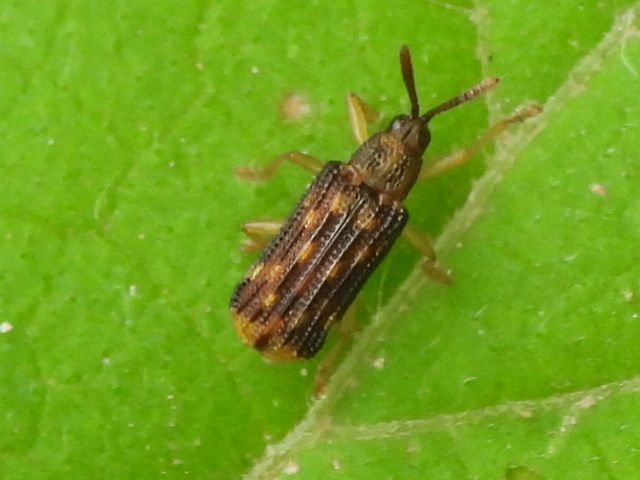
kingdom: Animalia
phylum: Arthropoda
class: Insecta
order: Coleoptera
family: Chrysomelidae
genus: Sumitrosis
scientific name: Sumitrosis inaequalis
